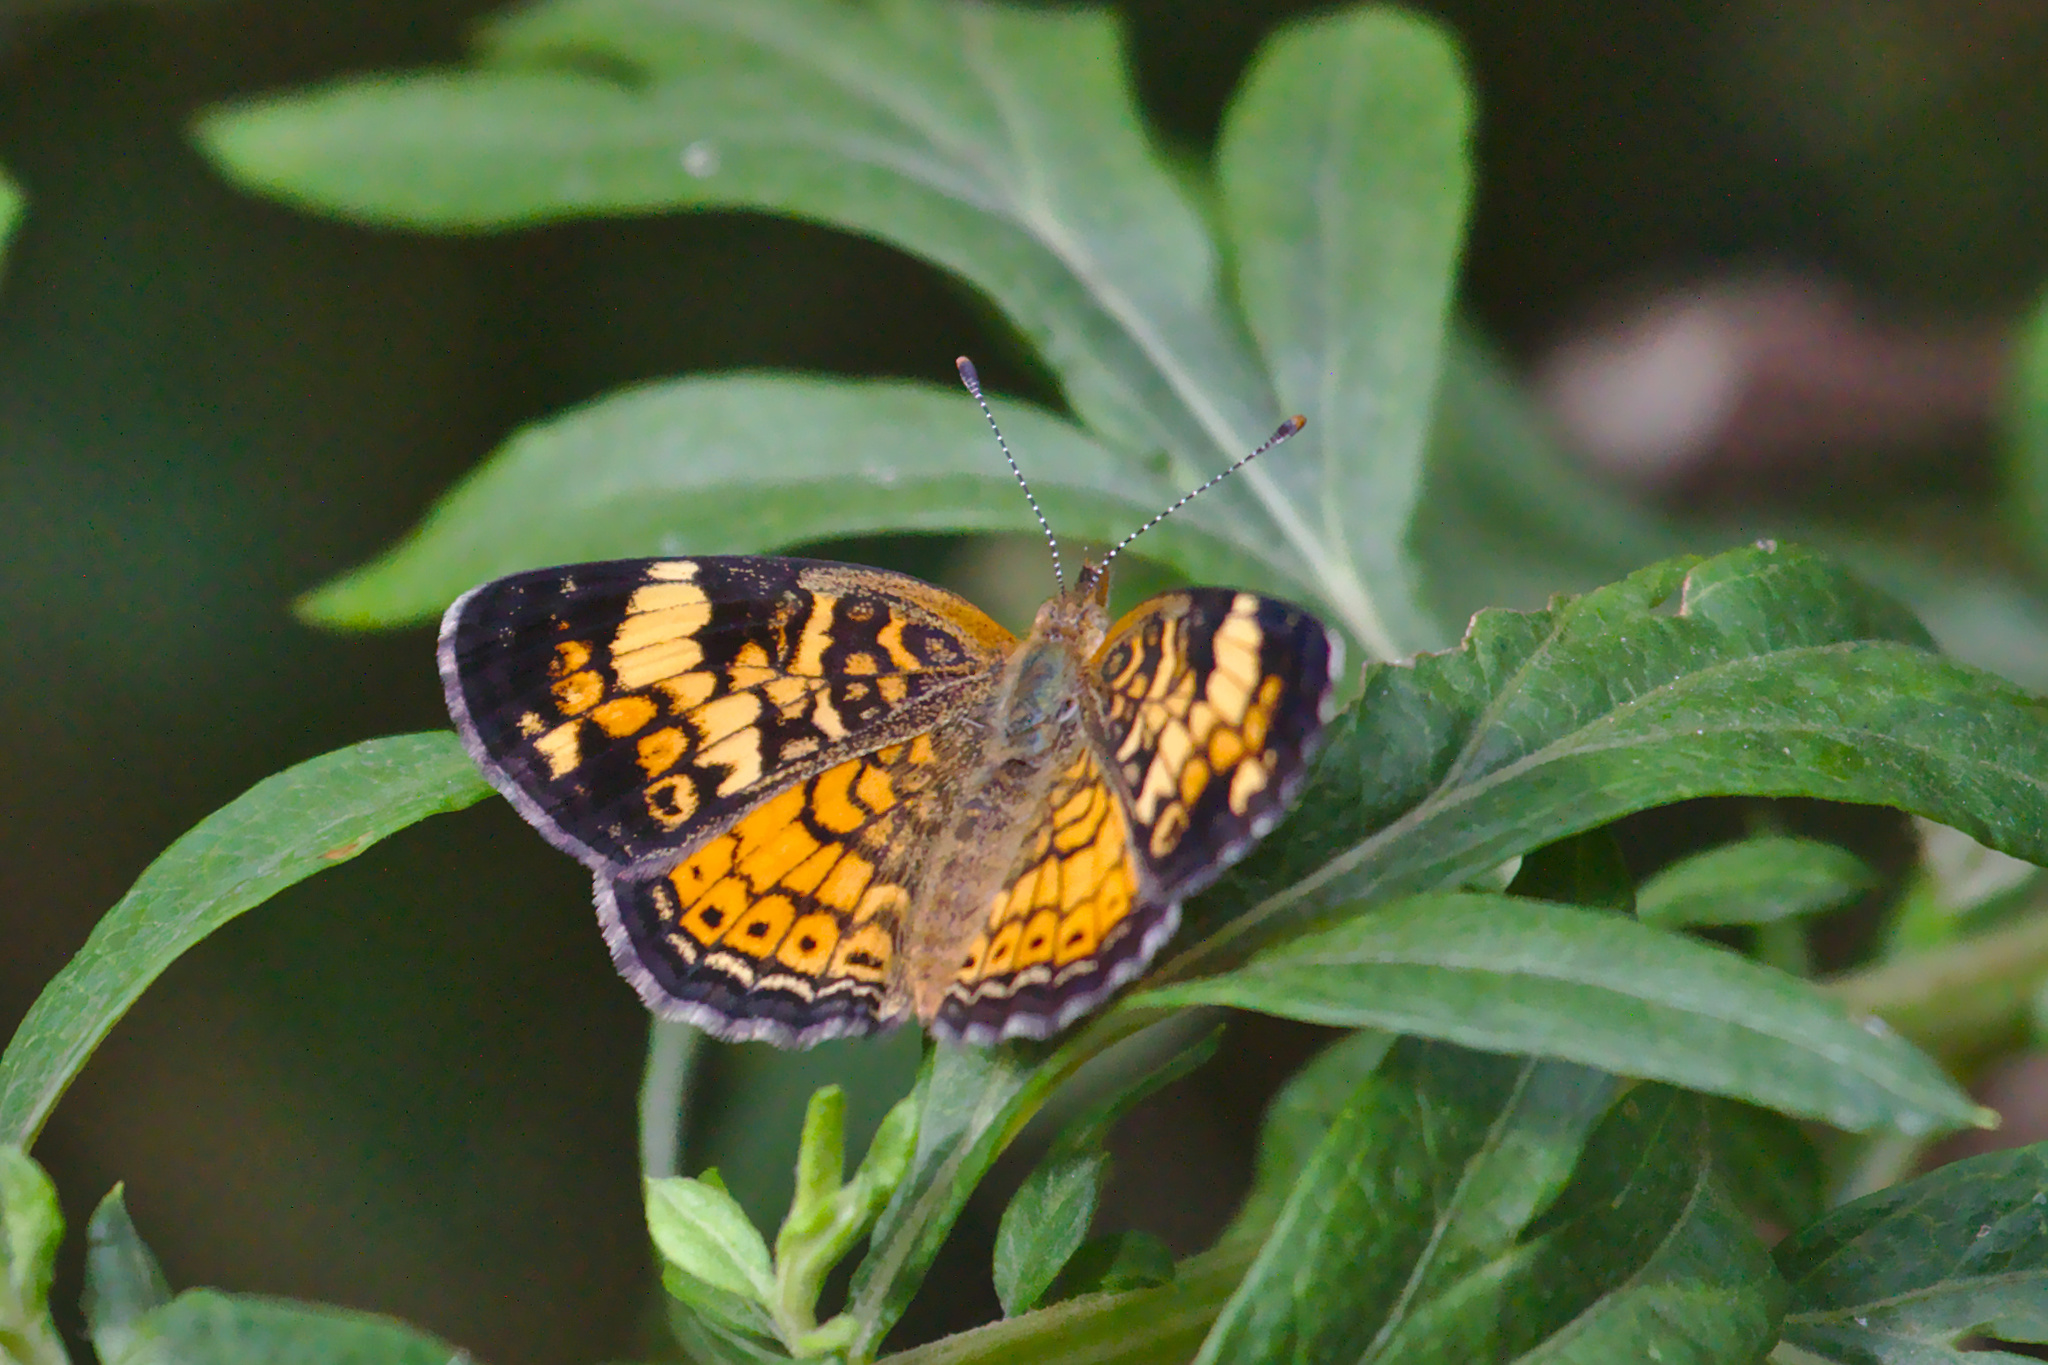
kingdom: Animalia
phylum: Arthropoda
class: Insecta
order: Lepidoptera
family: Nymphalidae
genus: Phyciodes
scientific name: Phyciodes tharos
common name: Pearl crescent
